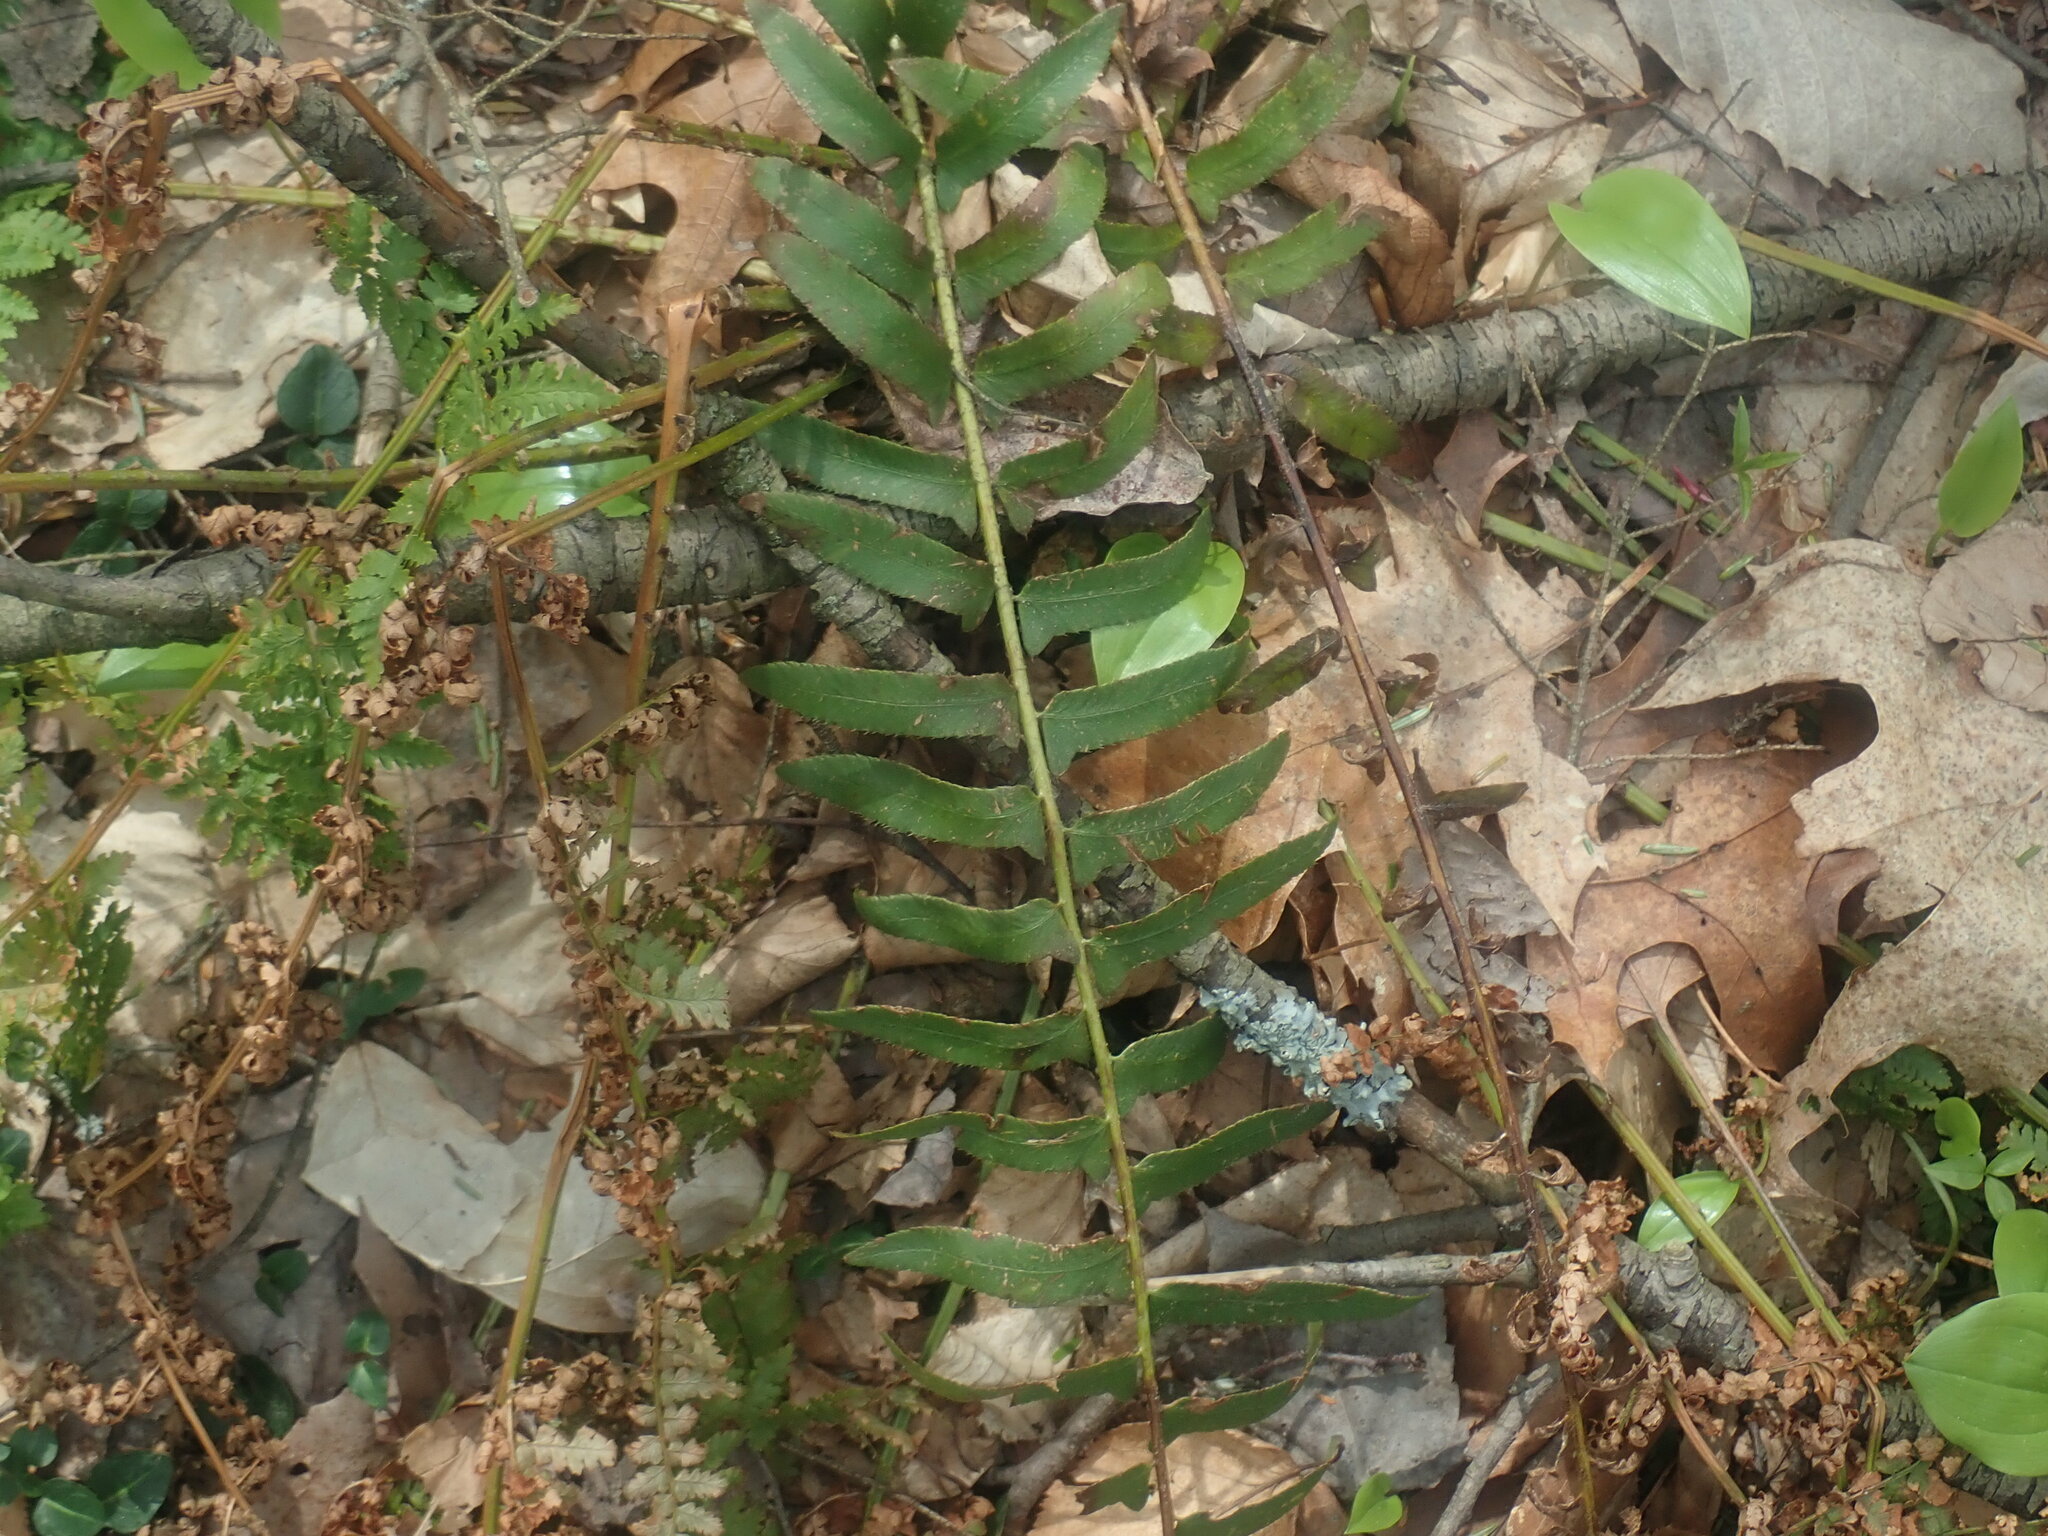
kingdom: Plantae
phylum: Tracheophyta
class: Polypodiopsida
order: Polypodiales
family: Dryopteridaceae
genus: Polystichum
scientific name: Polystichum acrostichoides
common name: Christmas fern
